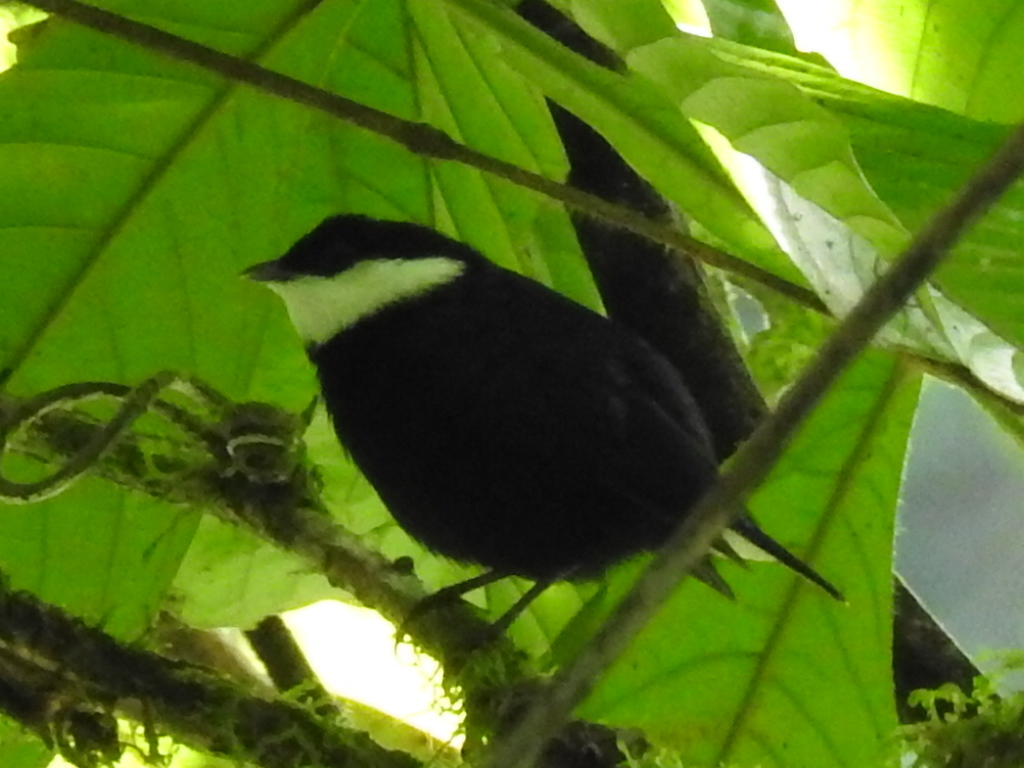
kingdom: Animalia
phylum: Chordata
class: Aves
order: Passeriformes
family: Pipridae
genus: Corapipo
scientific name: Corapipo altera
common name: White-ruffed manakin
